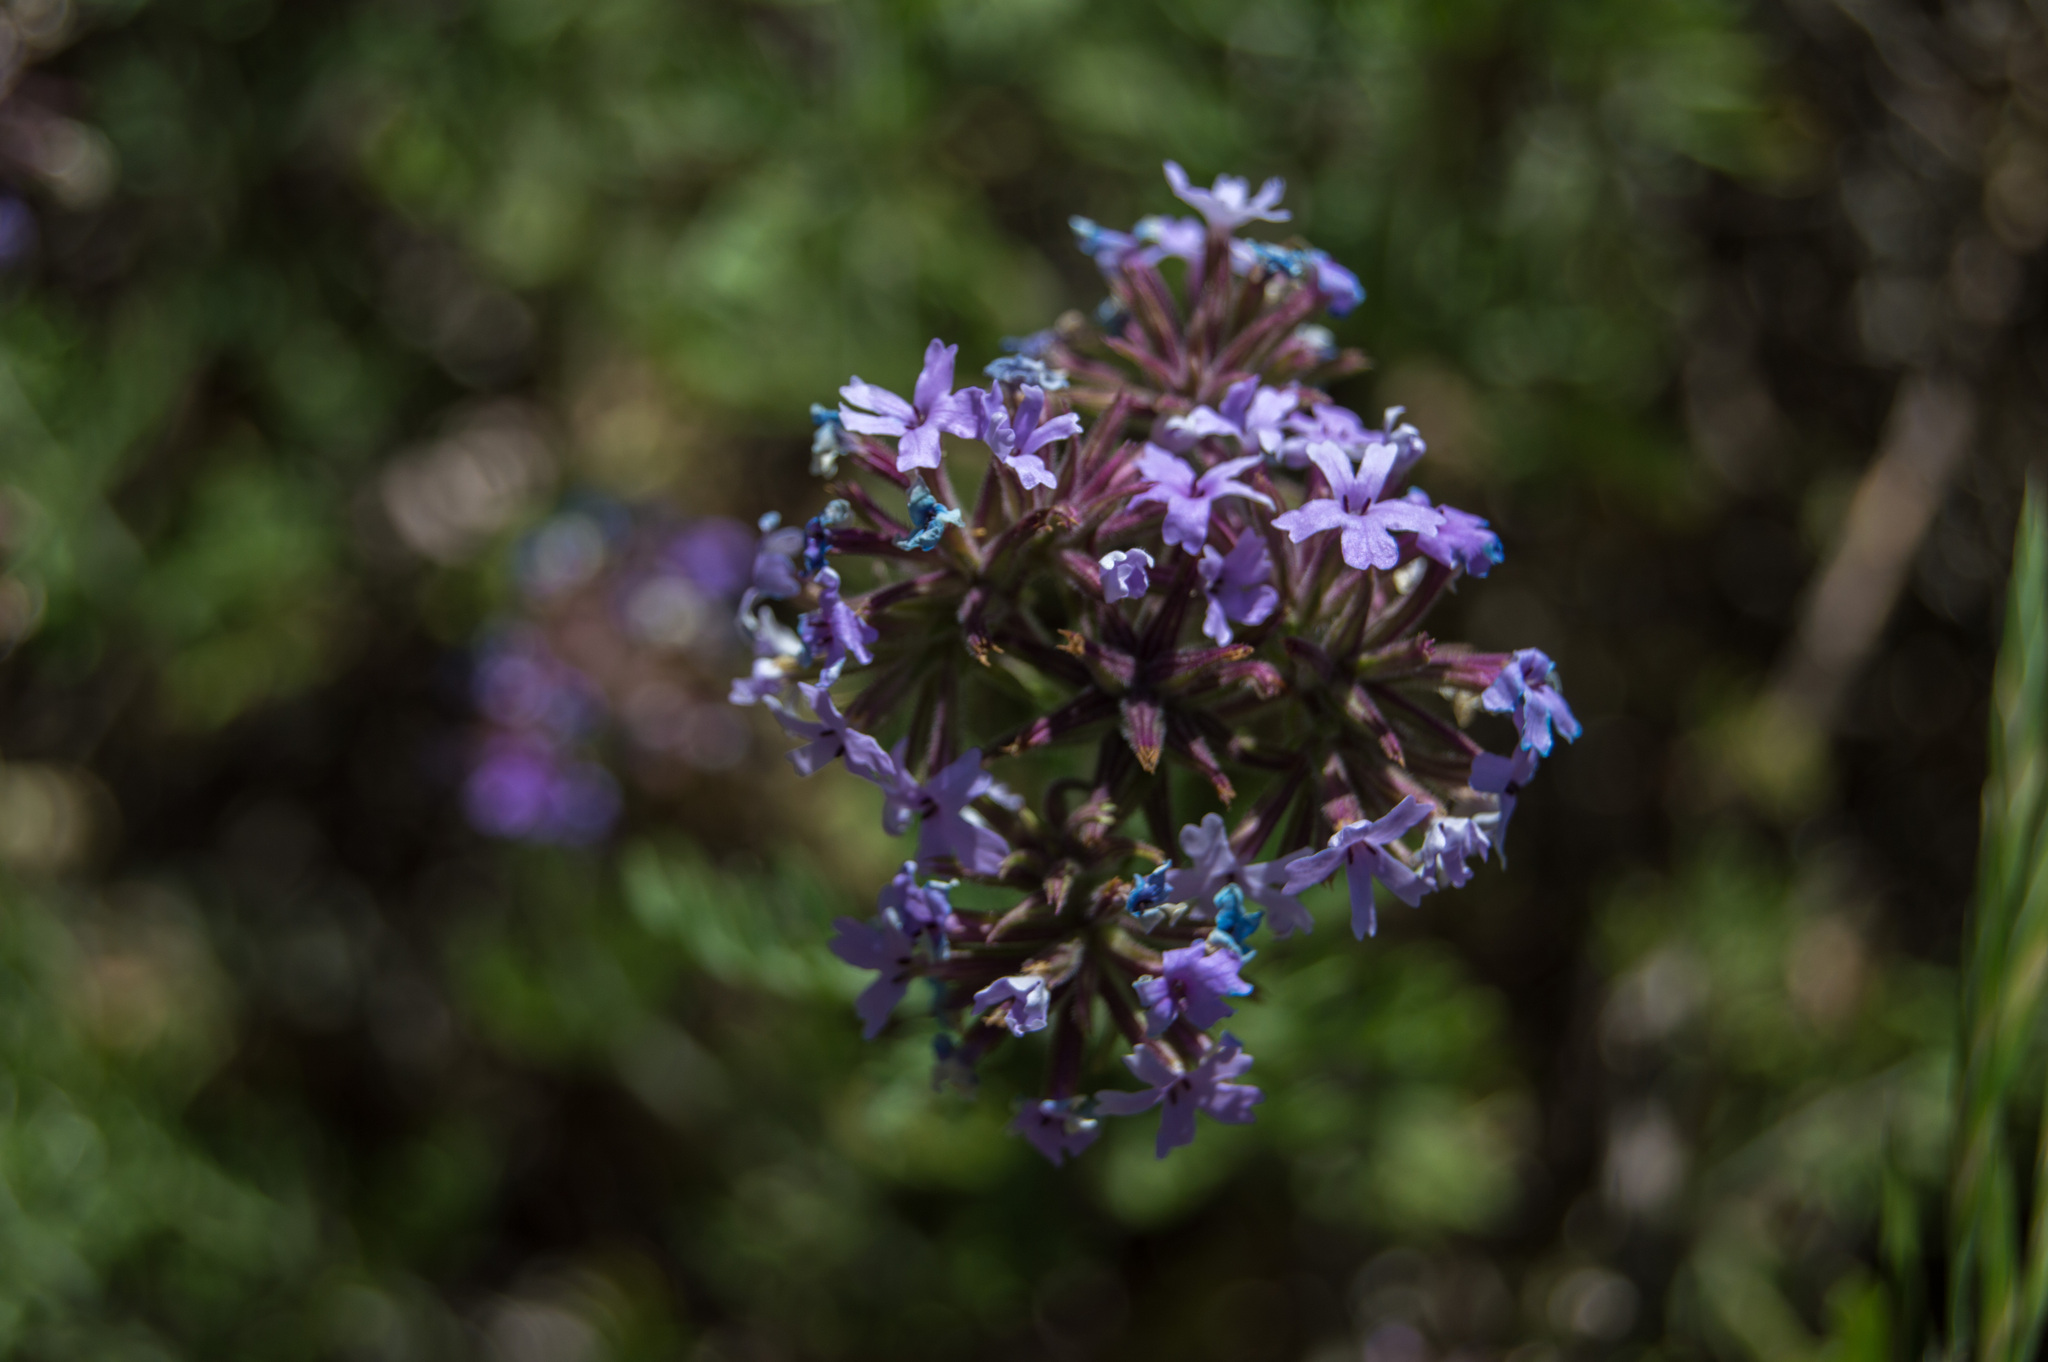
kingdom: Plantae
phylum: Tracheophyta
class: Magnoliopsida
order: Lamiales
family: Verbenaceae
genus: Verbena
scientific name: Verbena dissecta
